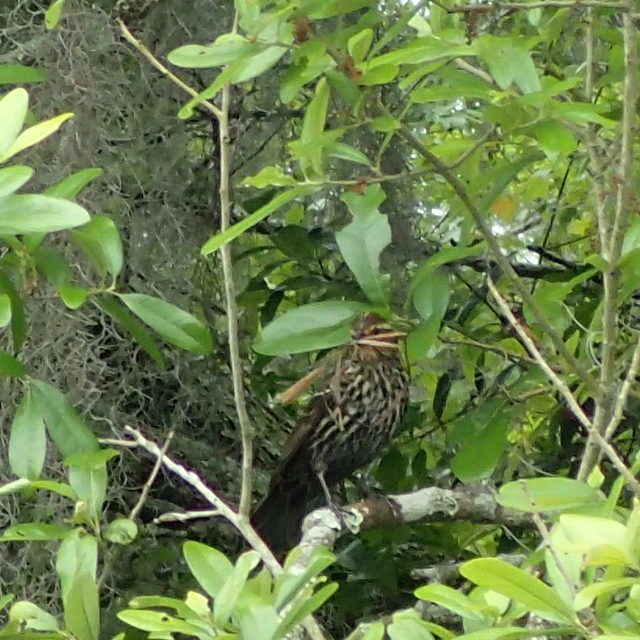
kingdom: Animalia
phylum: Chordata
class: Aves
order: Passeriformes
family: Icteridae
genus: Agelaius
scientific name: Agelaius phoeniceus
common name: Red-winged blackbird
